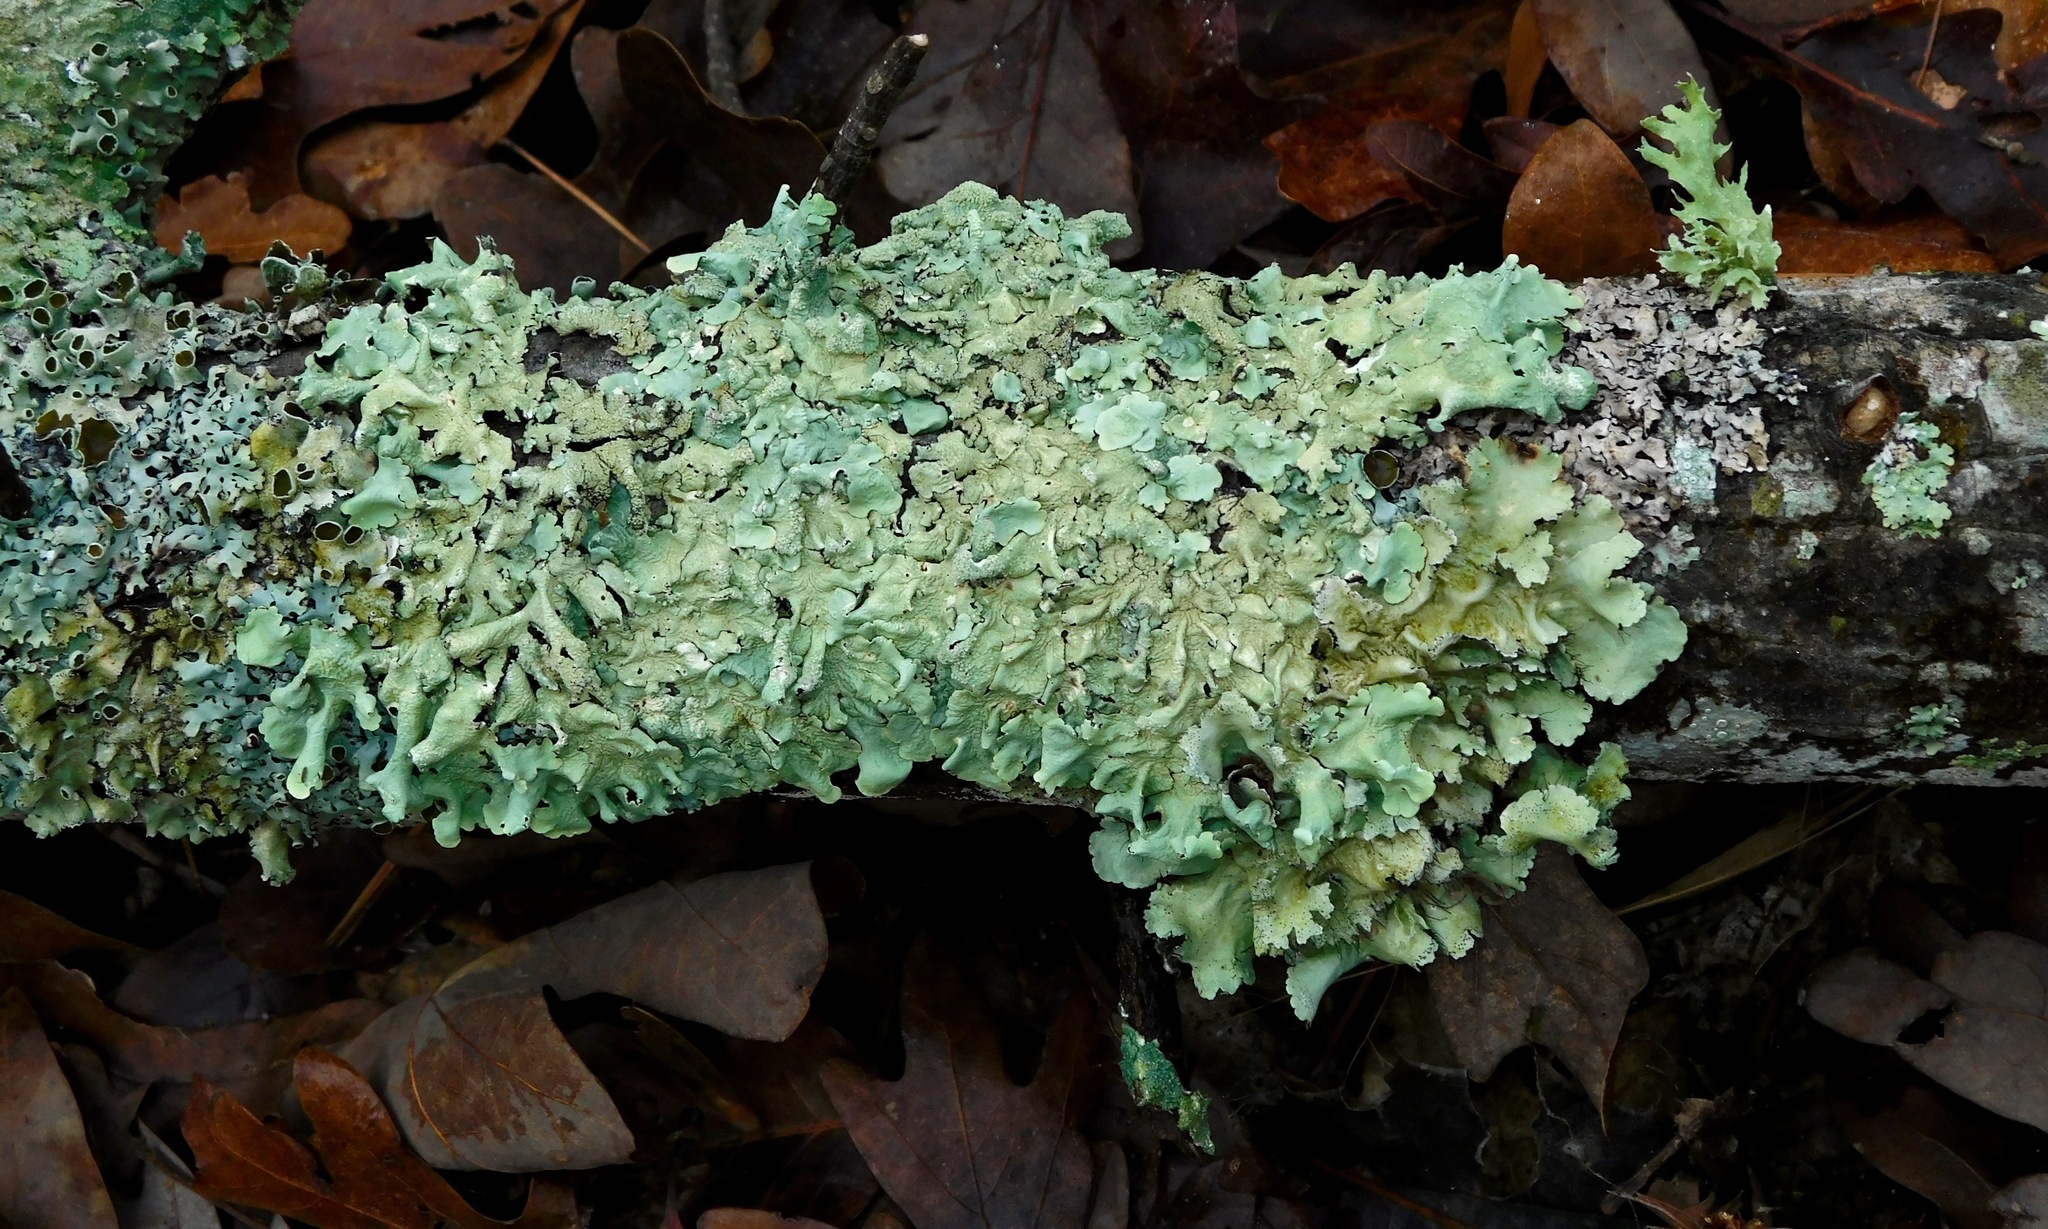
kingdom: Fungi
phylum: Ascomycota
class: Lecanoromycetes
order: Lecanorales
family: Parmeliaceae
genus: Flavoparmelia
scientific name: Flavoparmelia caperata
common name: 40-mile per hour lichen
